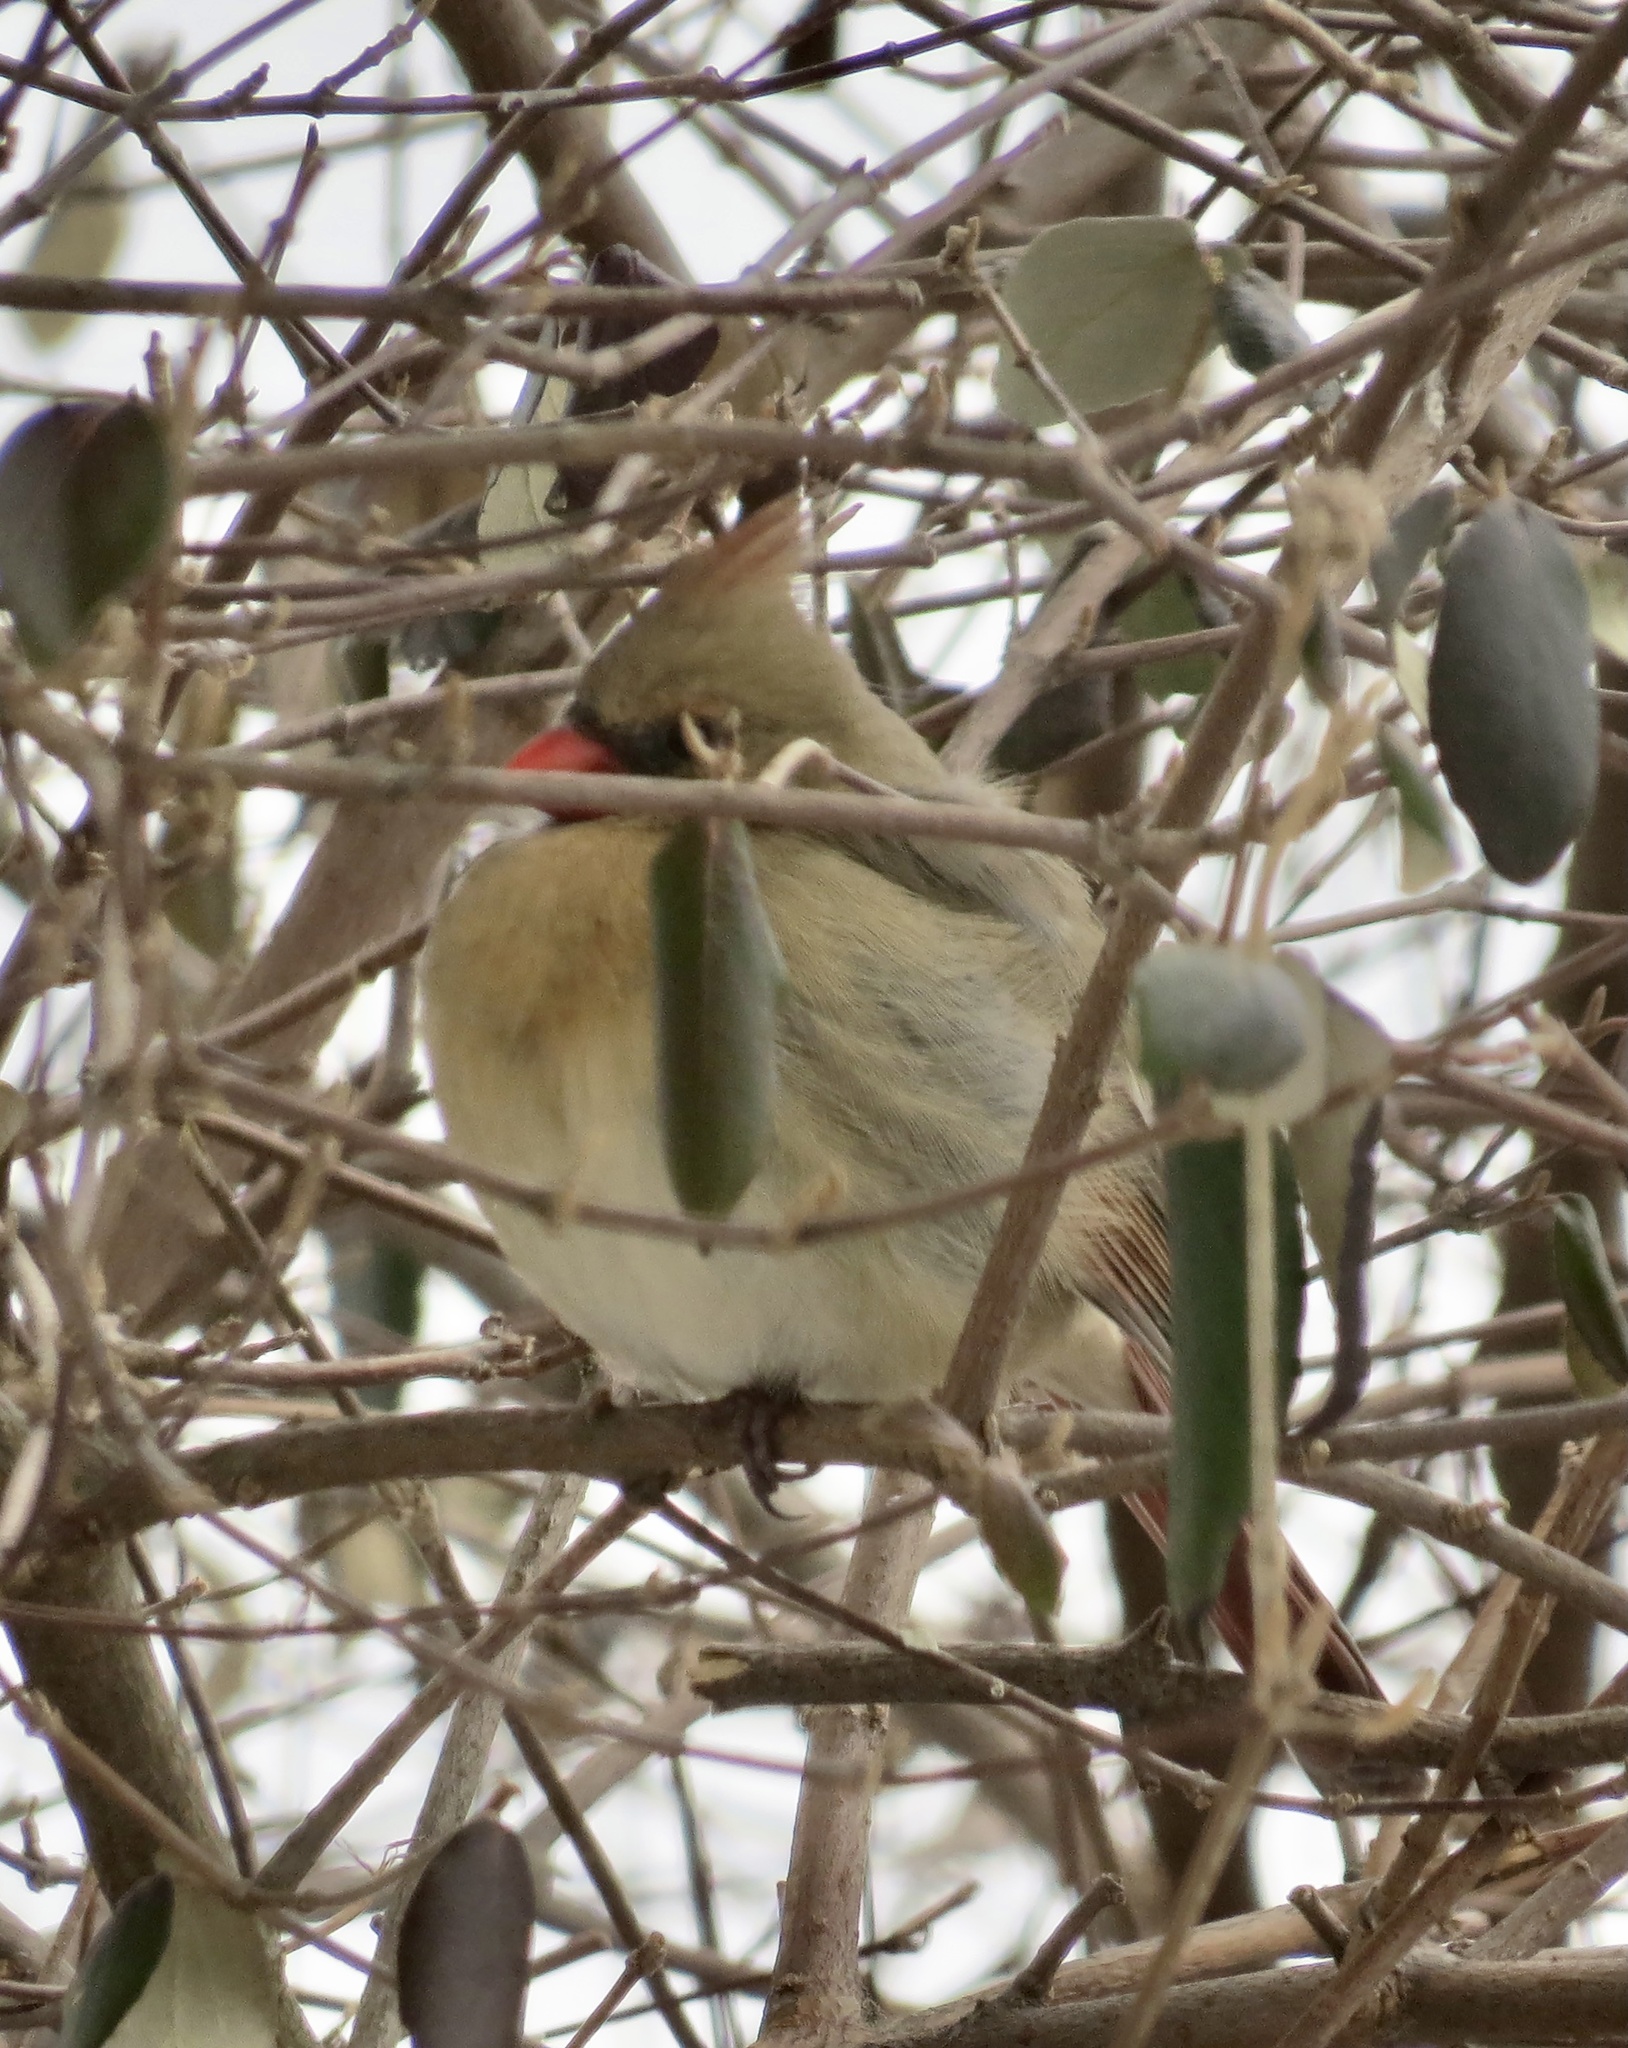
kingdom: Animalia
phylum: Chordata
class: Aves
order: Passeriformes
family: Cardinalidae
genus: Cardinalis
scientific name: Cardinalis cardinalis
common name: Northern cardinal
